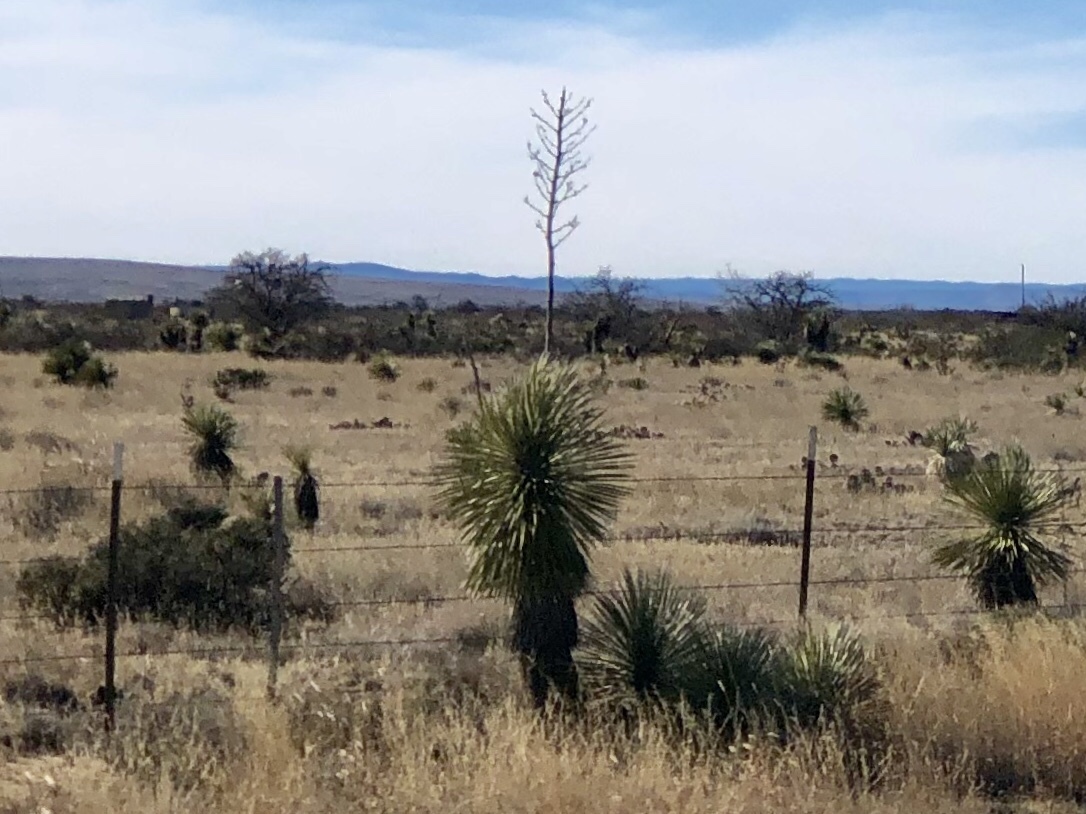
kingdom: Plantae
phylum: Tracheophyta
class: Liliopsida
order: Asparagales
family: Asparagaceae
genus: Yucca
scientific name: Yucca elata
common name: Palmella
